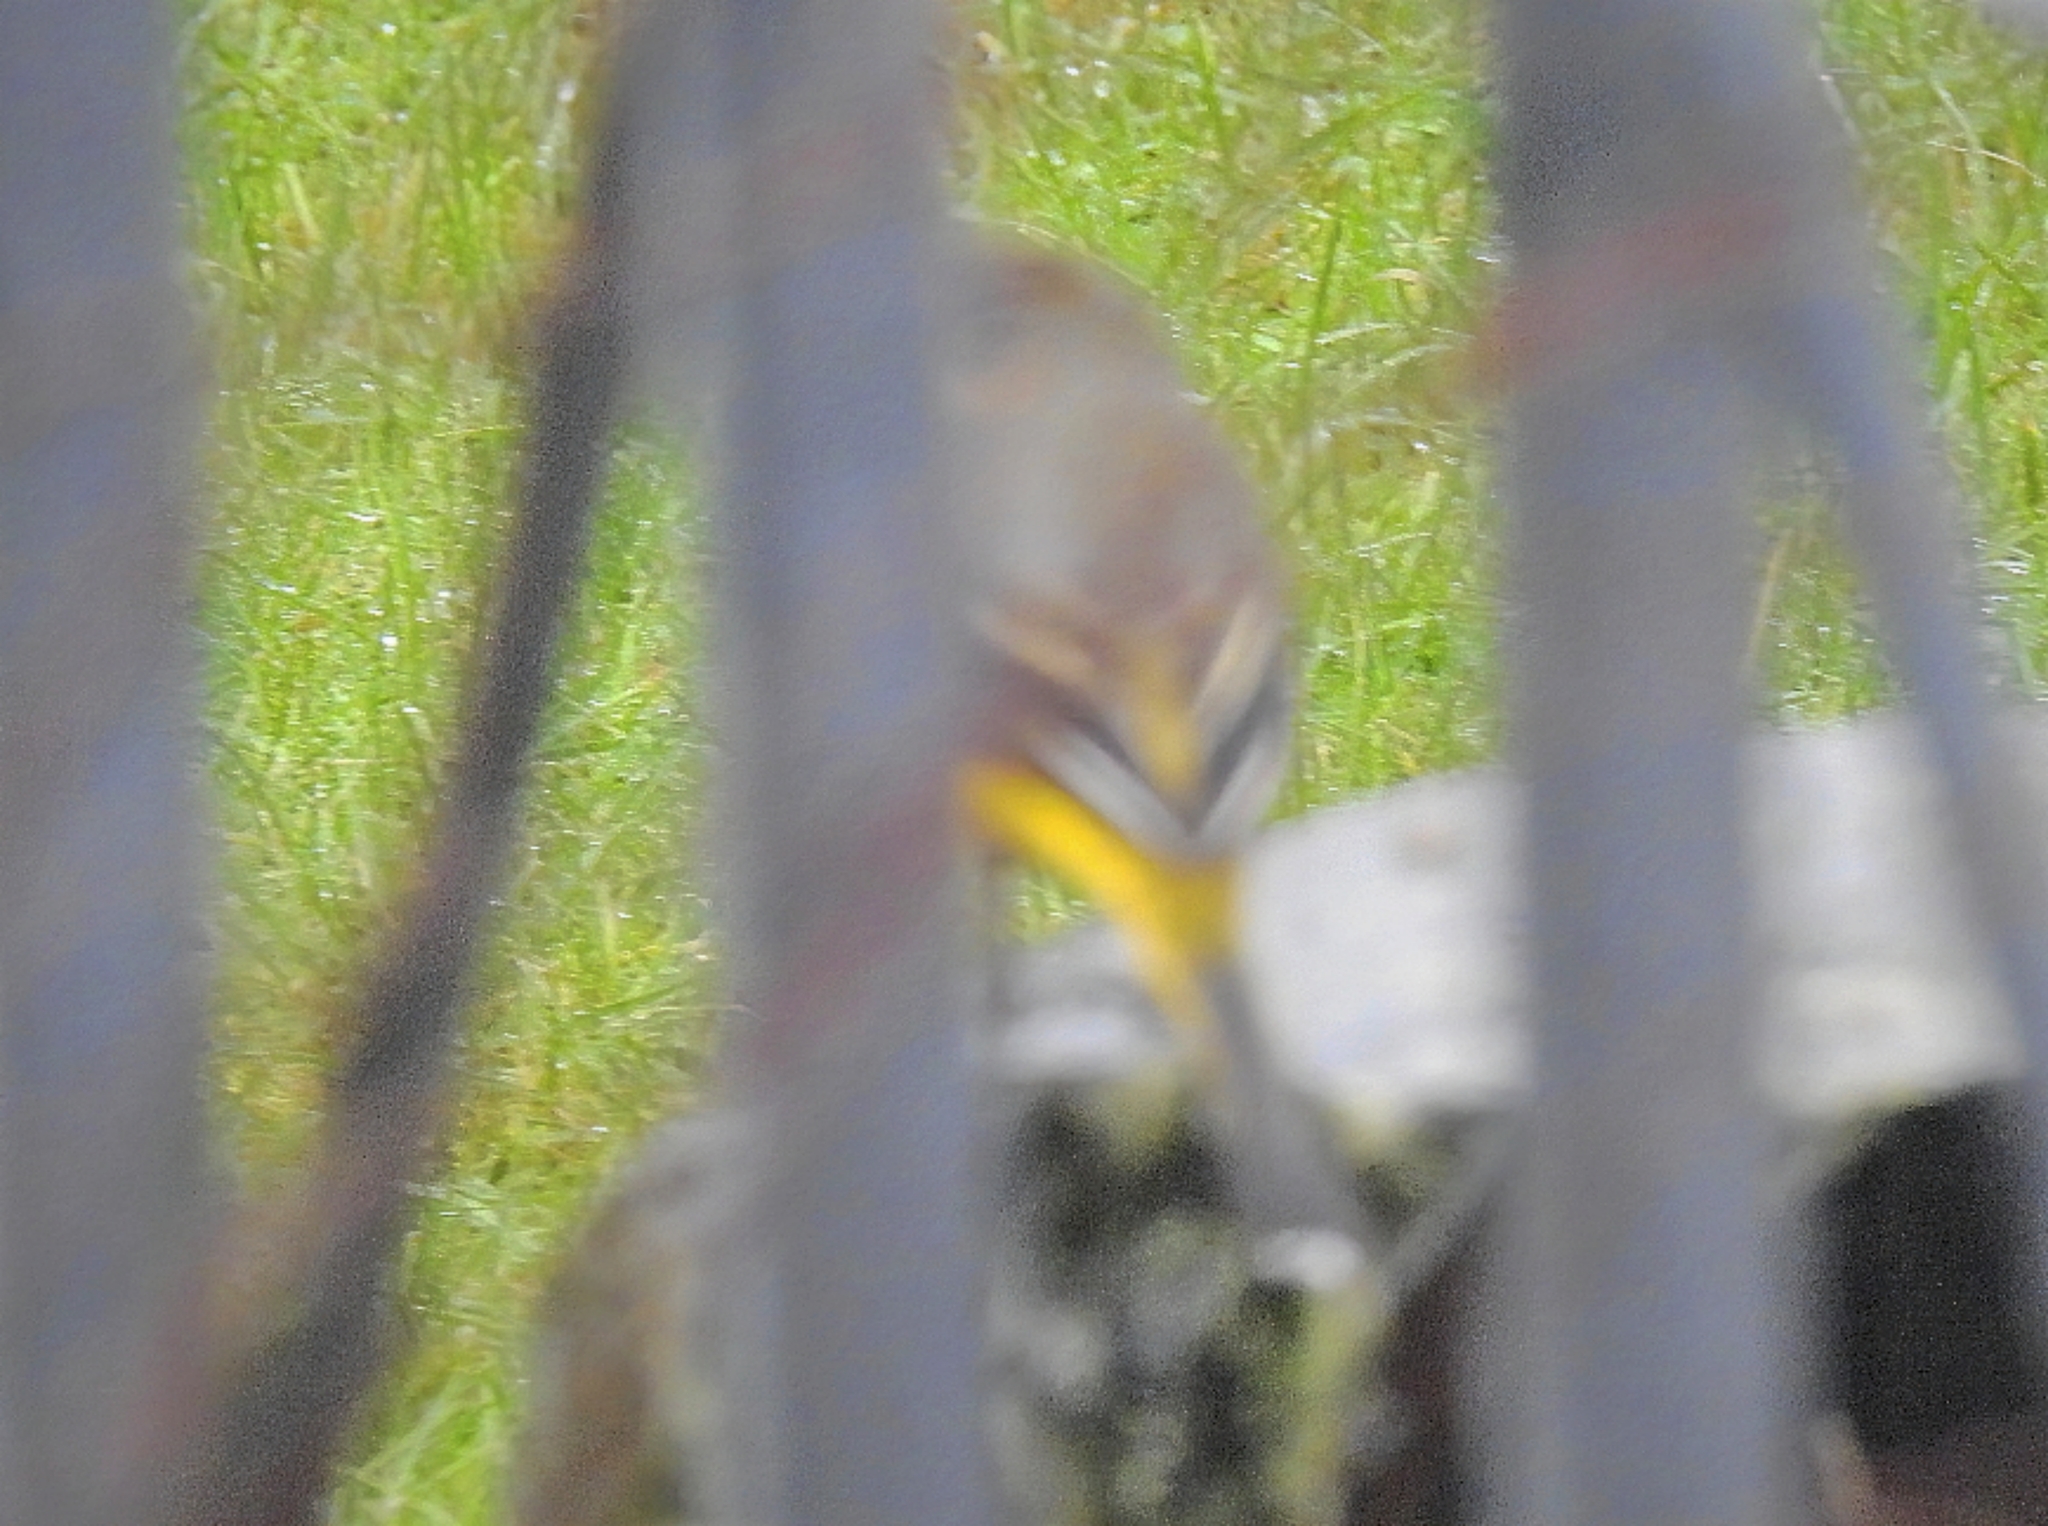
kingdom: Animalia
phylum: Chordata
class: Aves
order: Passeriformes
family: Motacillidae
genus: Motacilla
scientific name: Motacilla cinerea
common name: Grey wagtail
